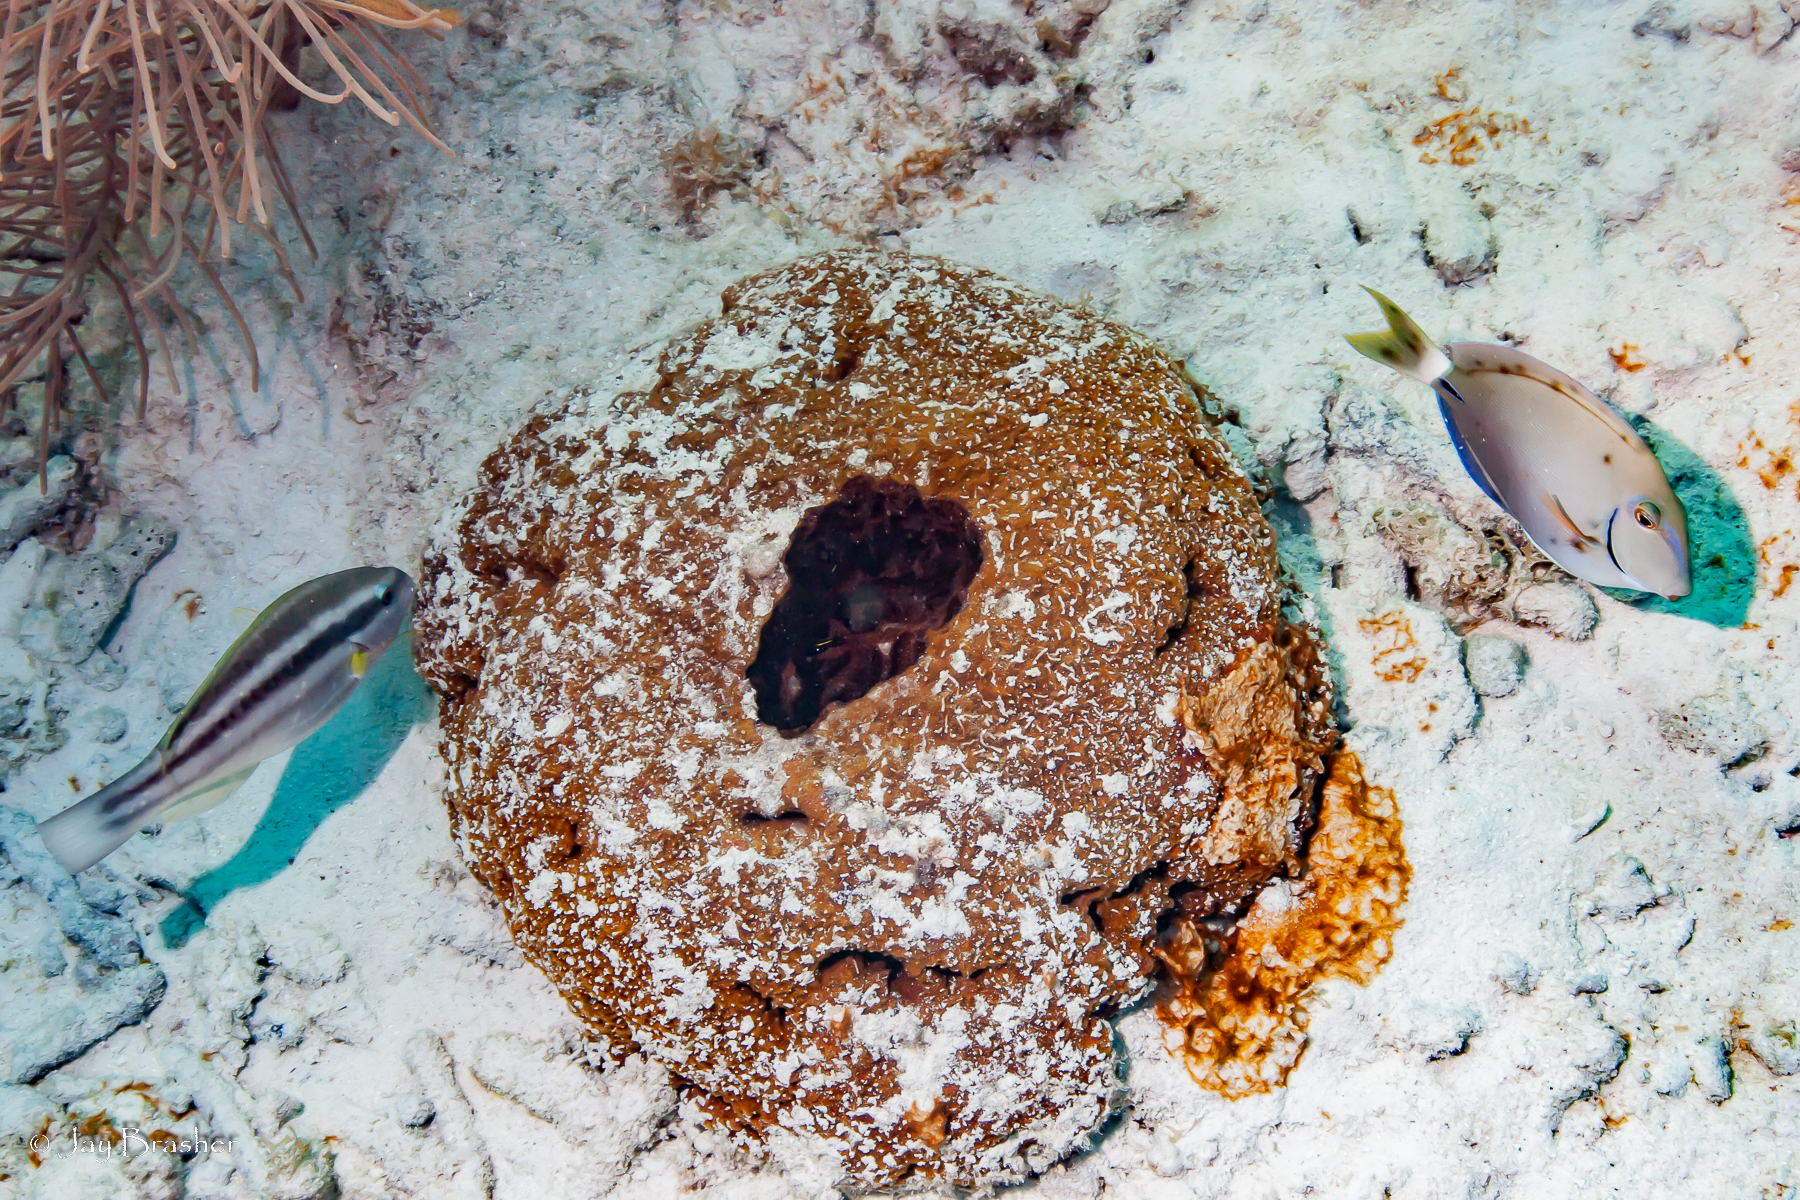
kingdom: Animalia
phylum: Chordata
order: Perciformes
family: Acanthuridae
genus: Acanthurus
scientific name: Acanthurus bahianus
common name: Ocean surgeon
